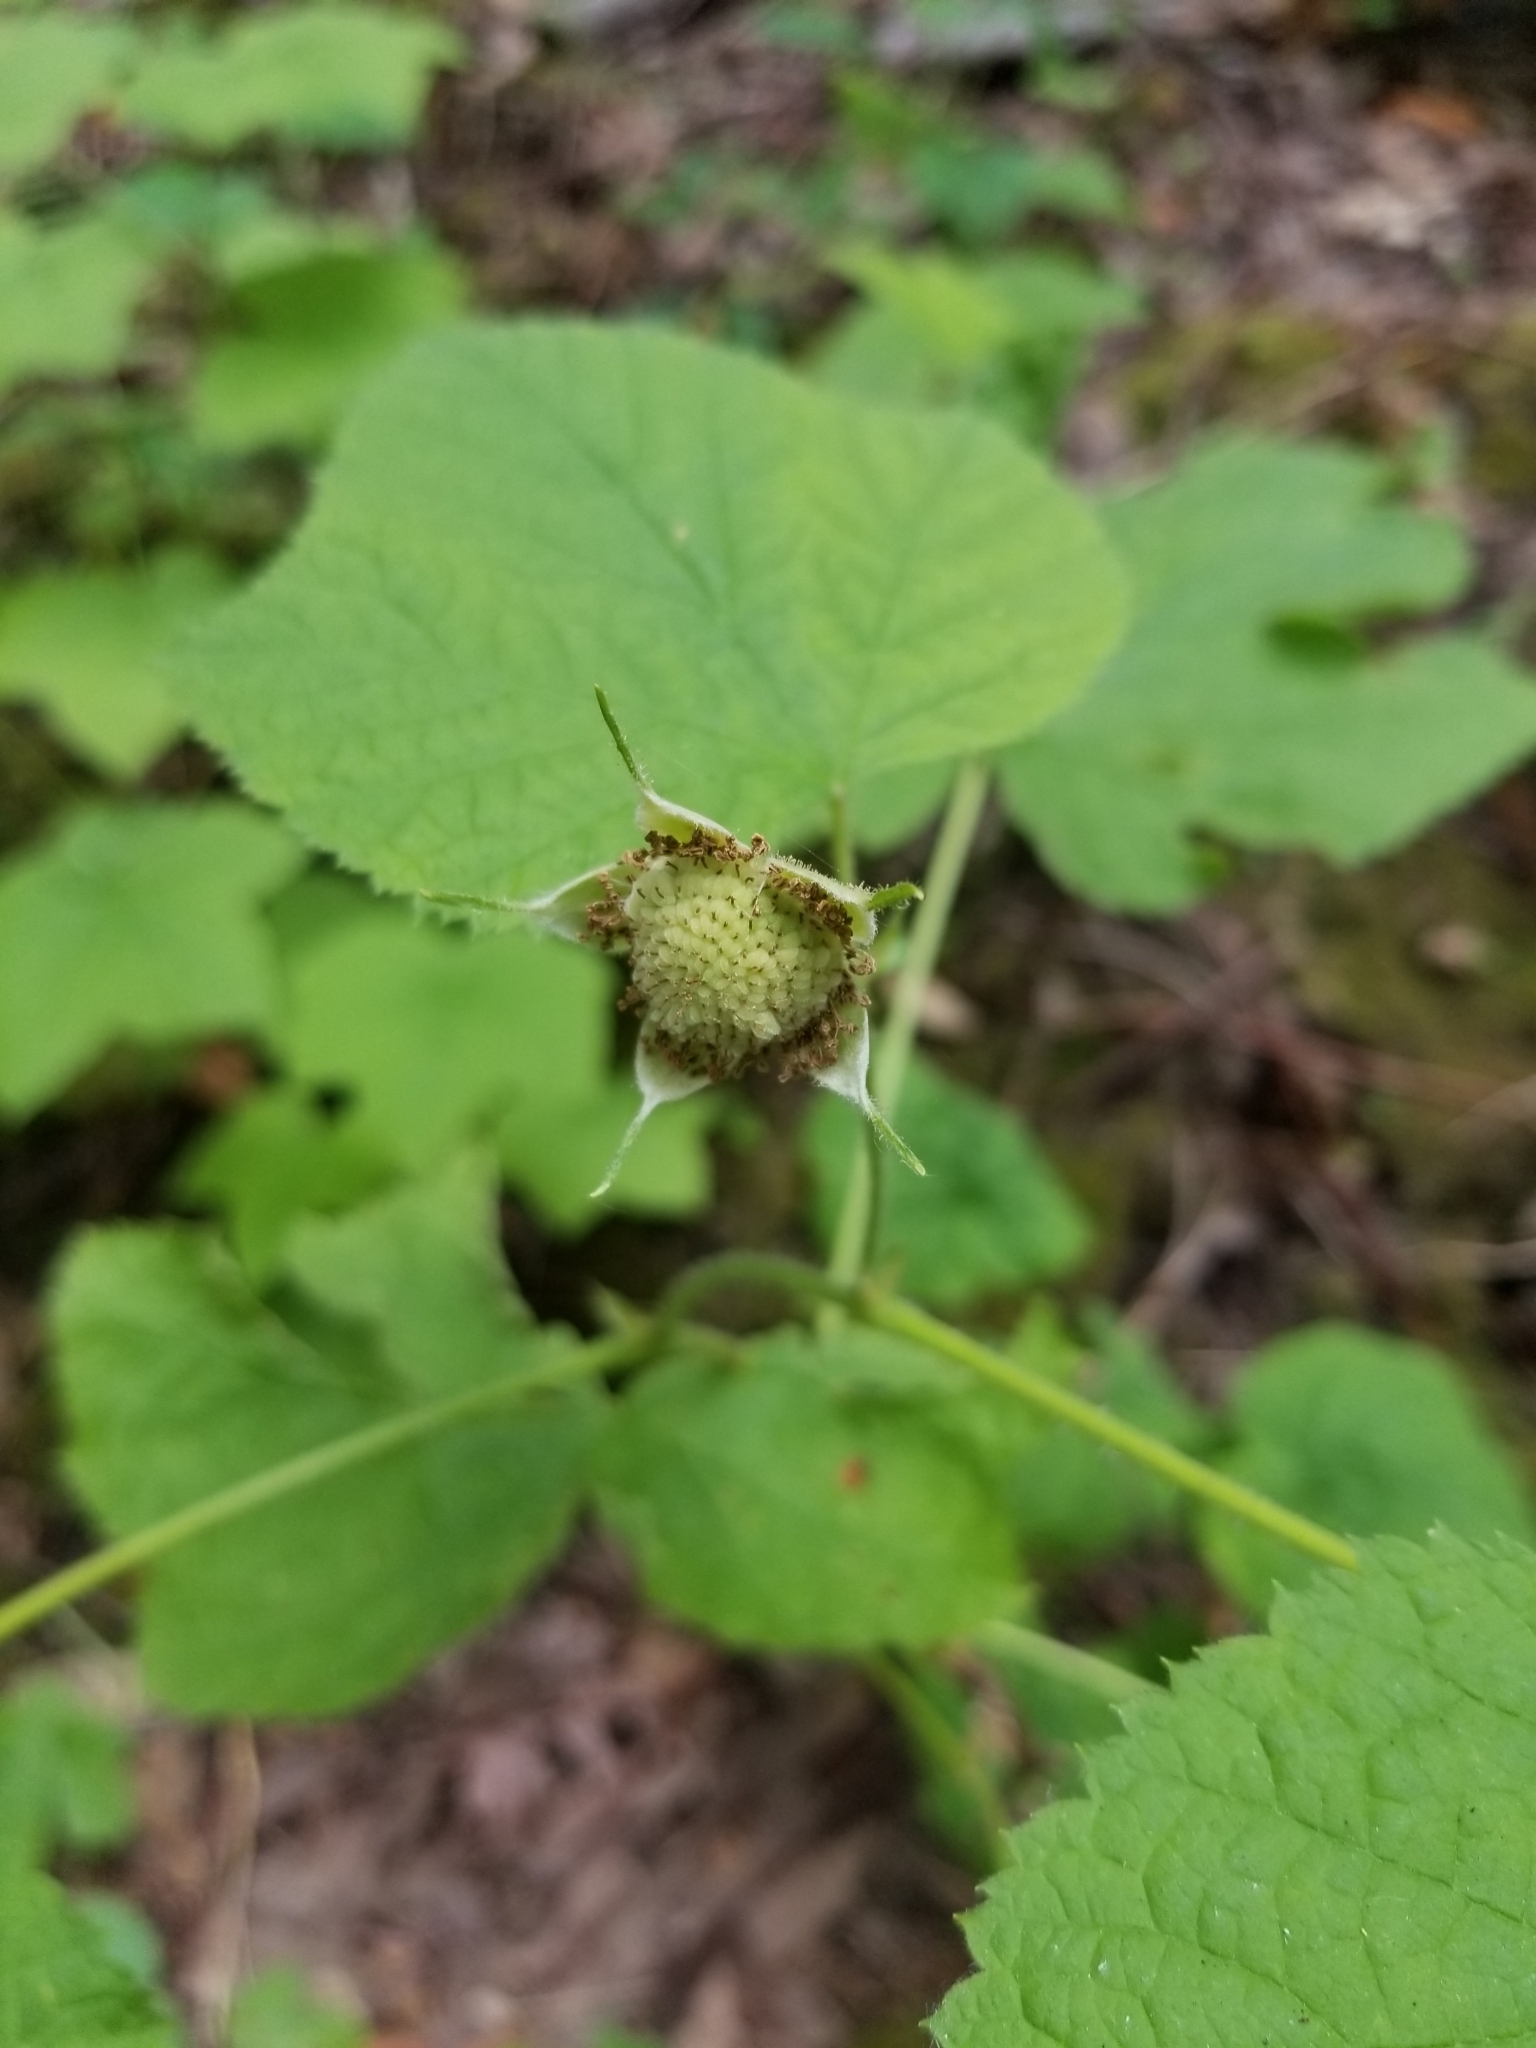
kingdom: Plantae
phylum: Tracheophyta
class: Magnoliopsida
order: Rosales
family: Rosaceae
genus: Rubus
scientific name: Rubus parviflorus
